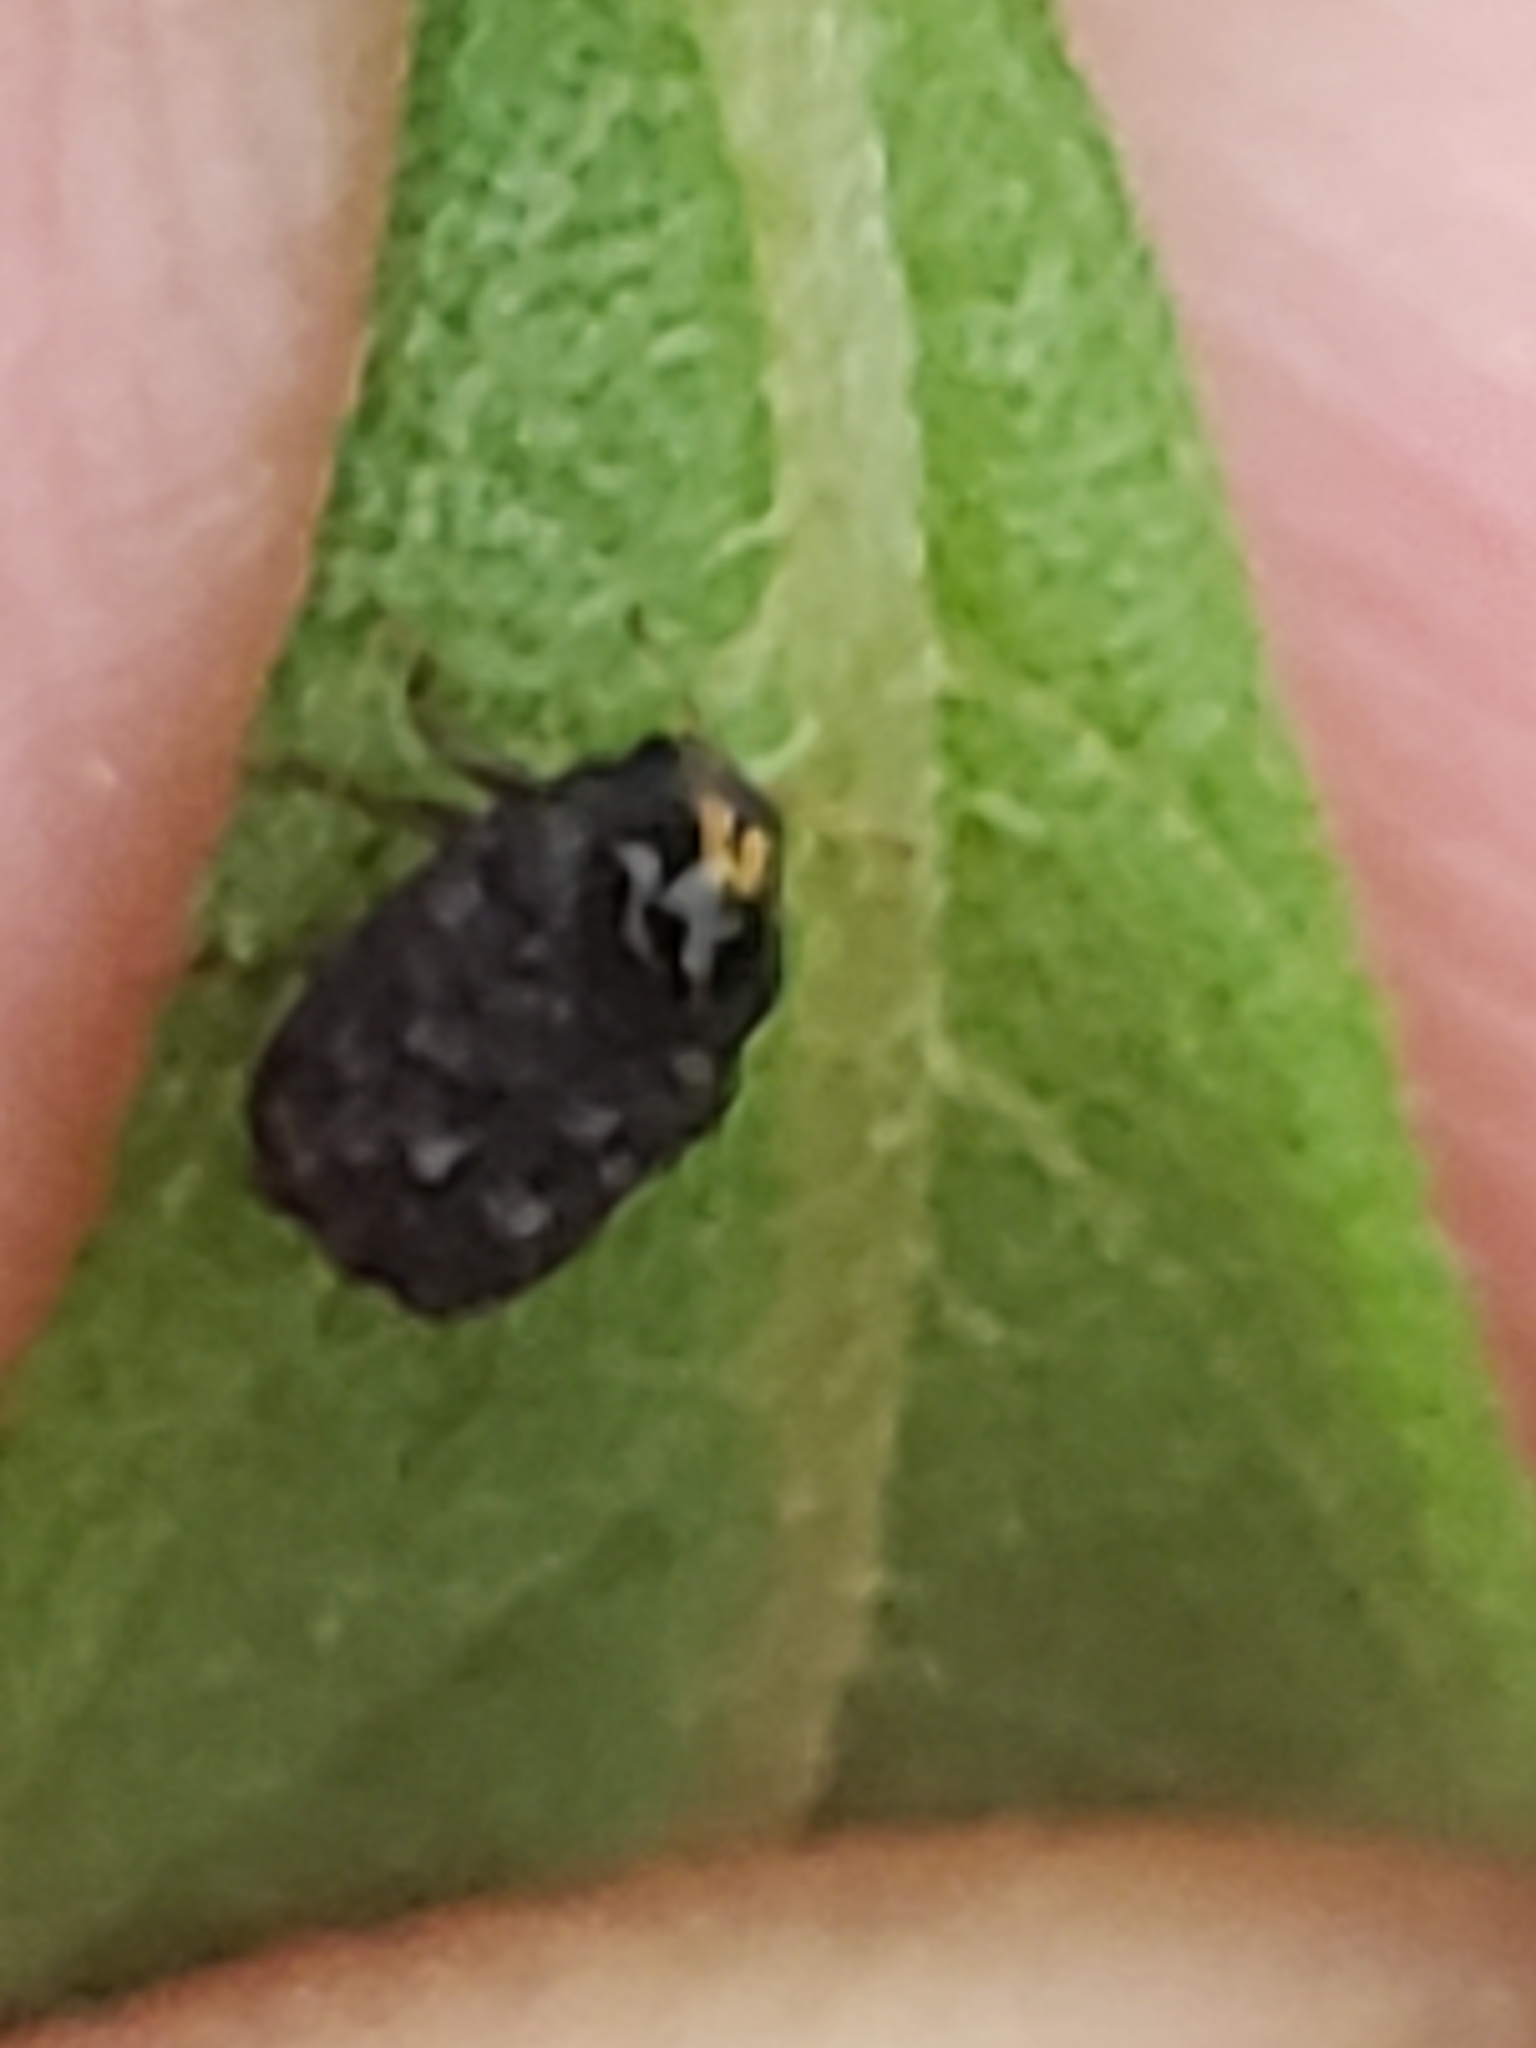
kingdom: Animalia
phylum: Arthropoda
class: Insecta
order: Coleoptera
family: Chrysomelidae
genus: Exema
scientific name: Exema canadensis
